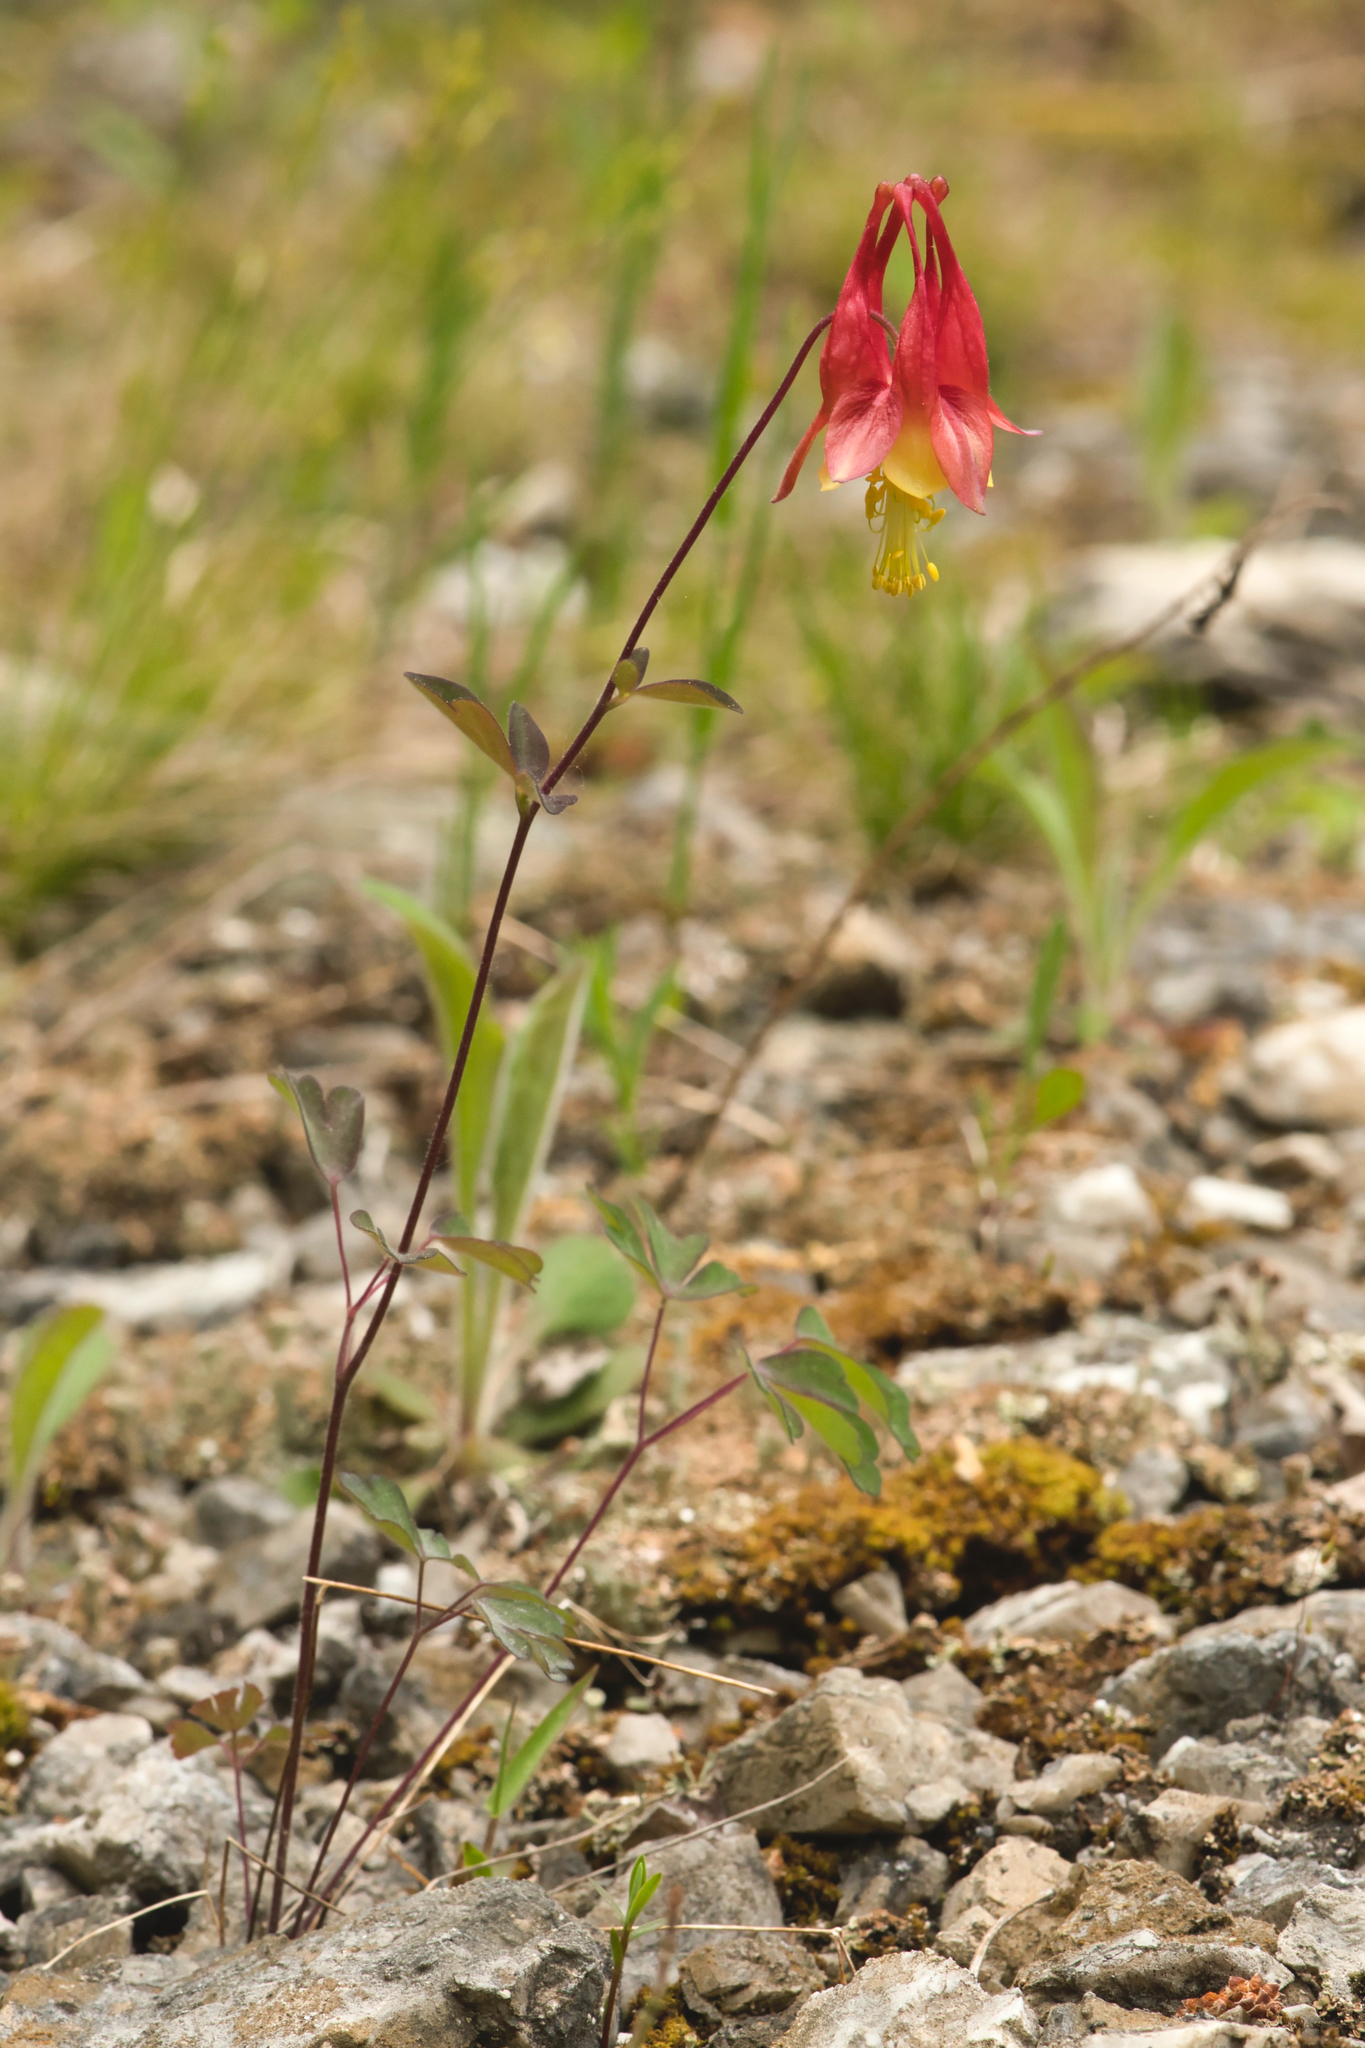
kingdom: Plantae
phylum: Tracheophyta
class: Magnoliopsida
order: Ranunculales
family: Ranunculaceae
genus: Aquilegia
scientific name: Aquilegia canadensis
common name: American columbine
